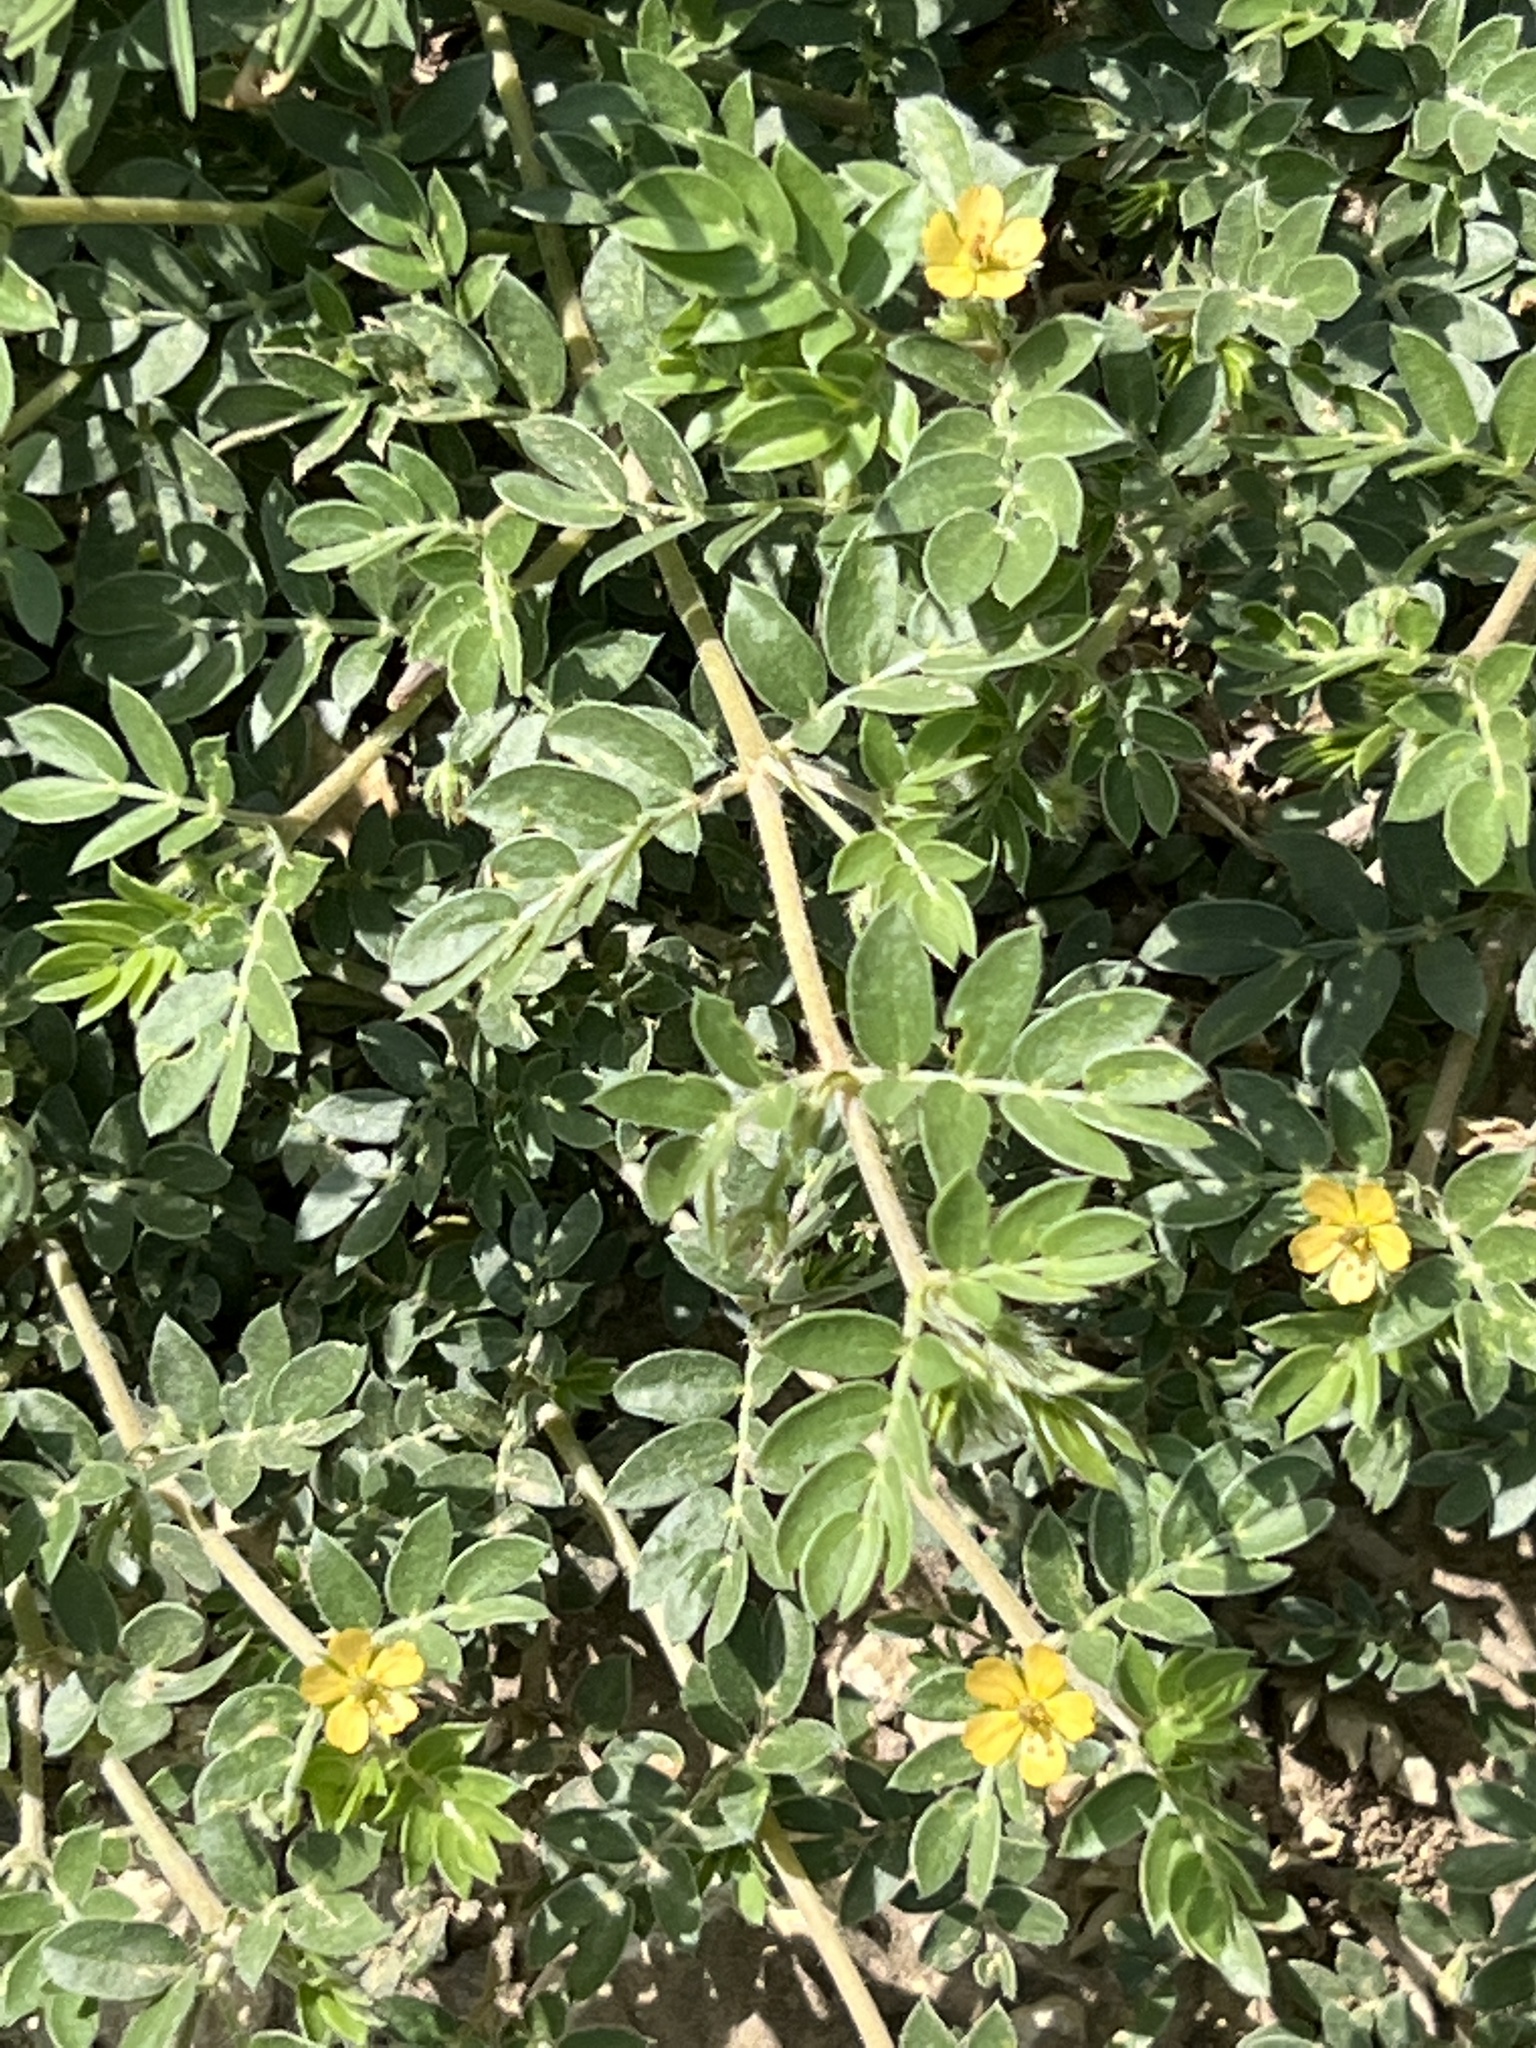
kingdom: Plantae
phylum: Tracheophyta
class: Magnoliopsida
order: Zygophyllales
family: Zygophyllaceae
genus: Kallstroemia
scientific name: Kallstroemia parviflora
